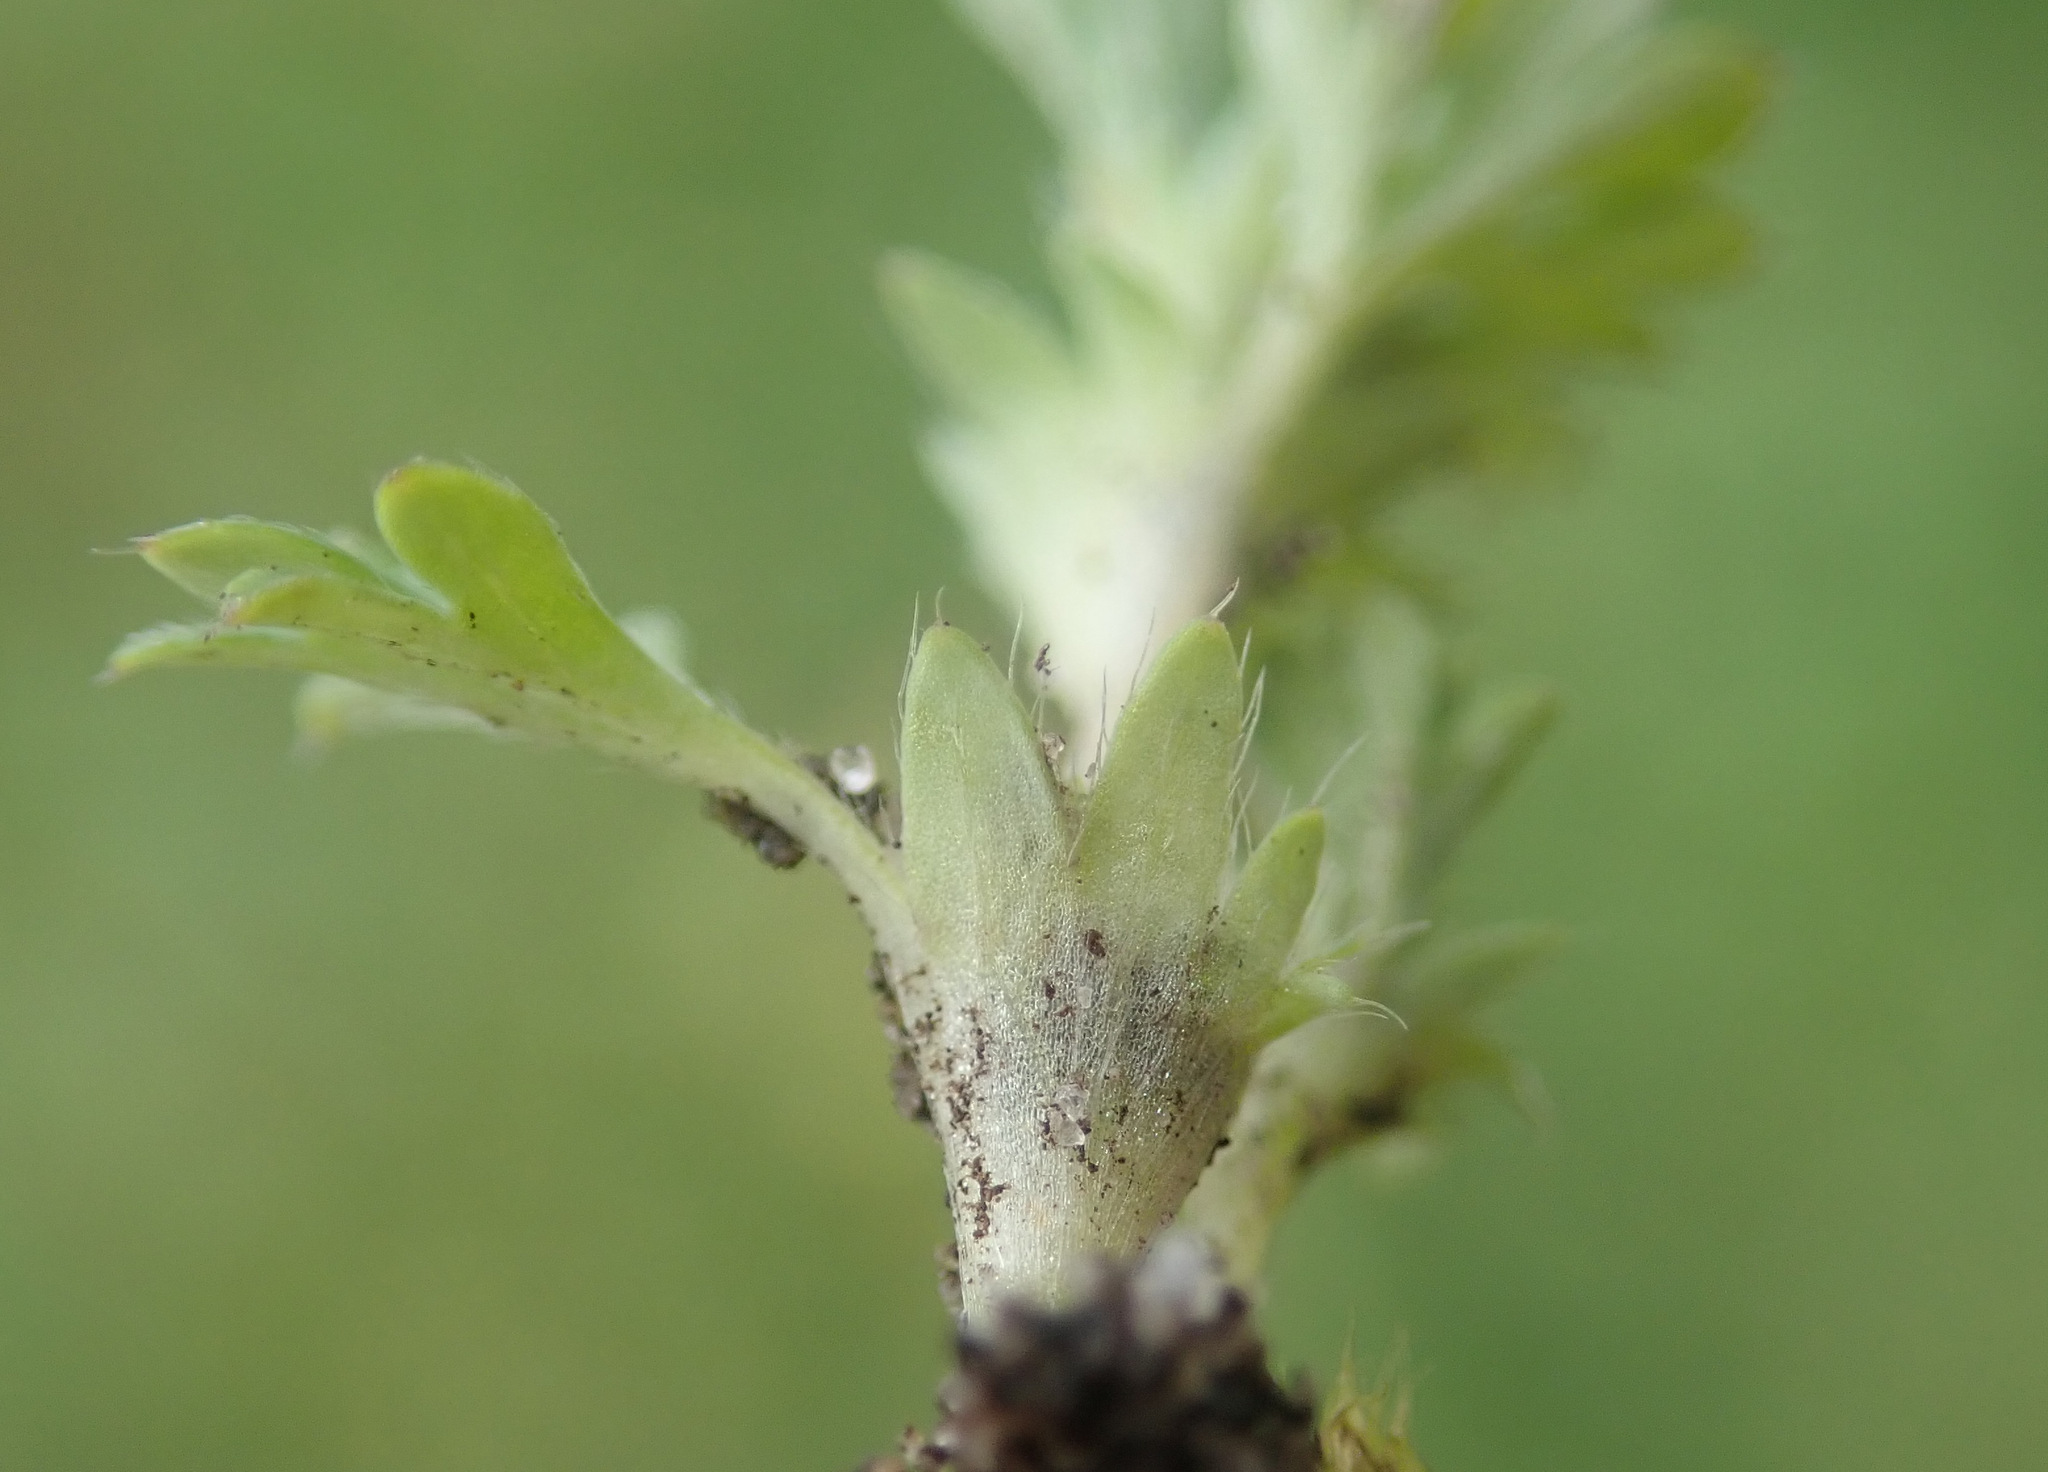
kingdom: Plantae
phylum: Tracheophyta
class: Magnoliopsida
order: Rosales
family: Rosaceae
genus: Aphanes
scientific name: Aphanes australis
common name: Slender parsley-piert
